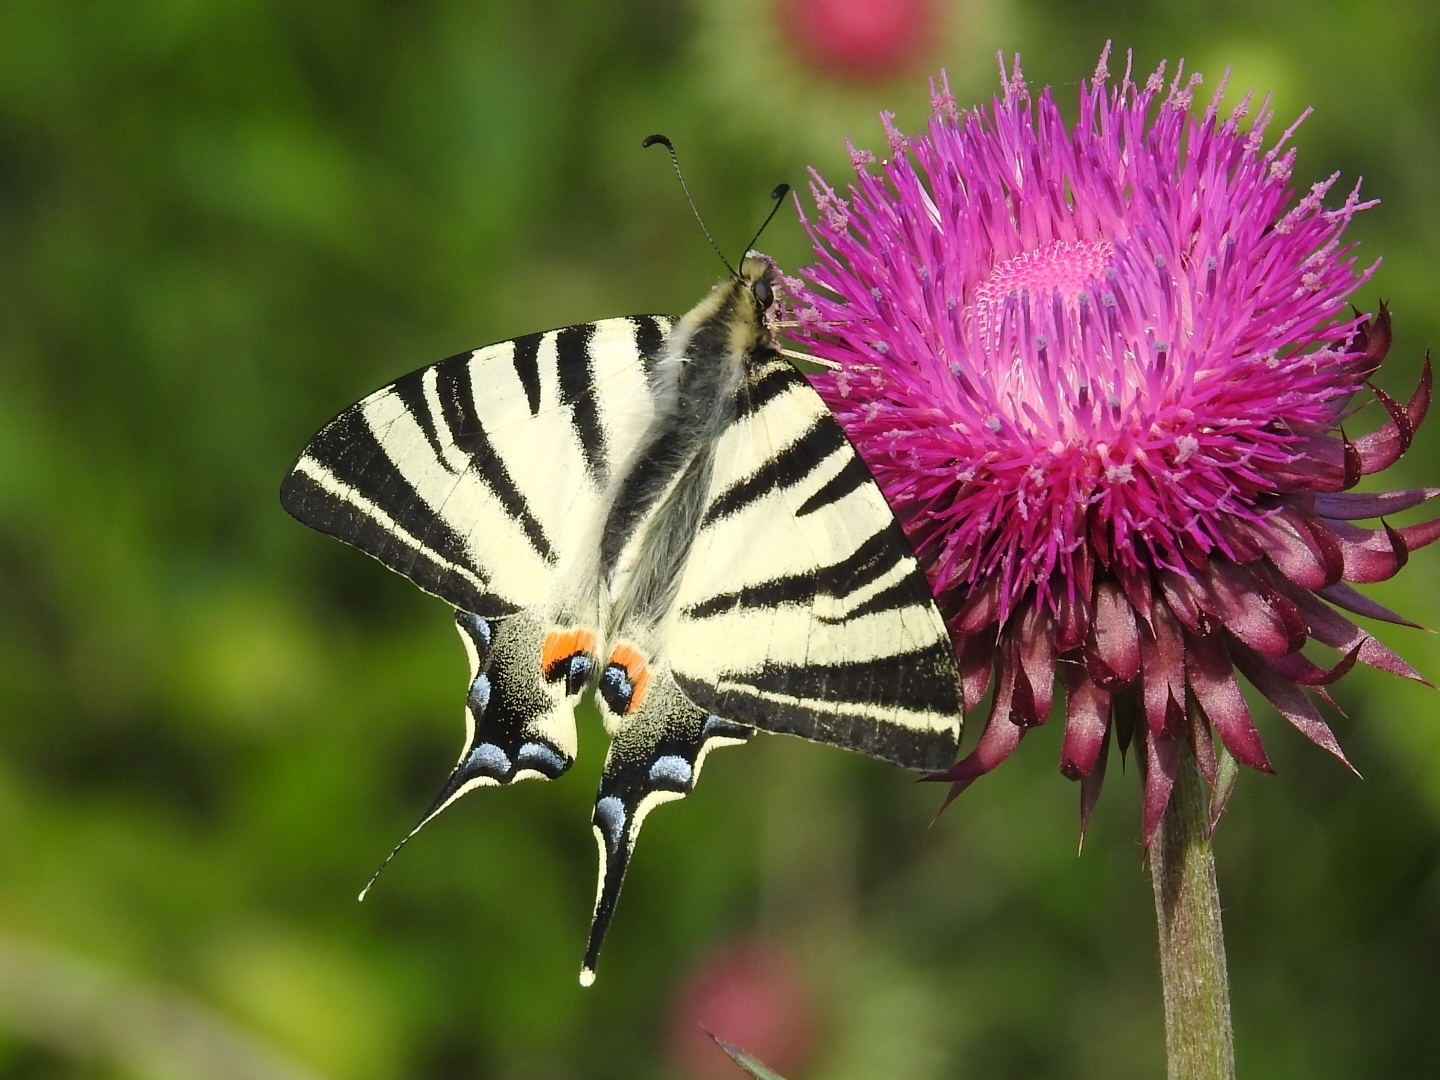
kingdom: Animalia
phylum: Arthropoda
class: Insecta
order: Lepidoptera
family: Papilionidae
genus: Iphiclides
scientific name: Iphiclides podalirius
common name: Scarce swallowtail
